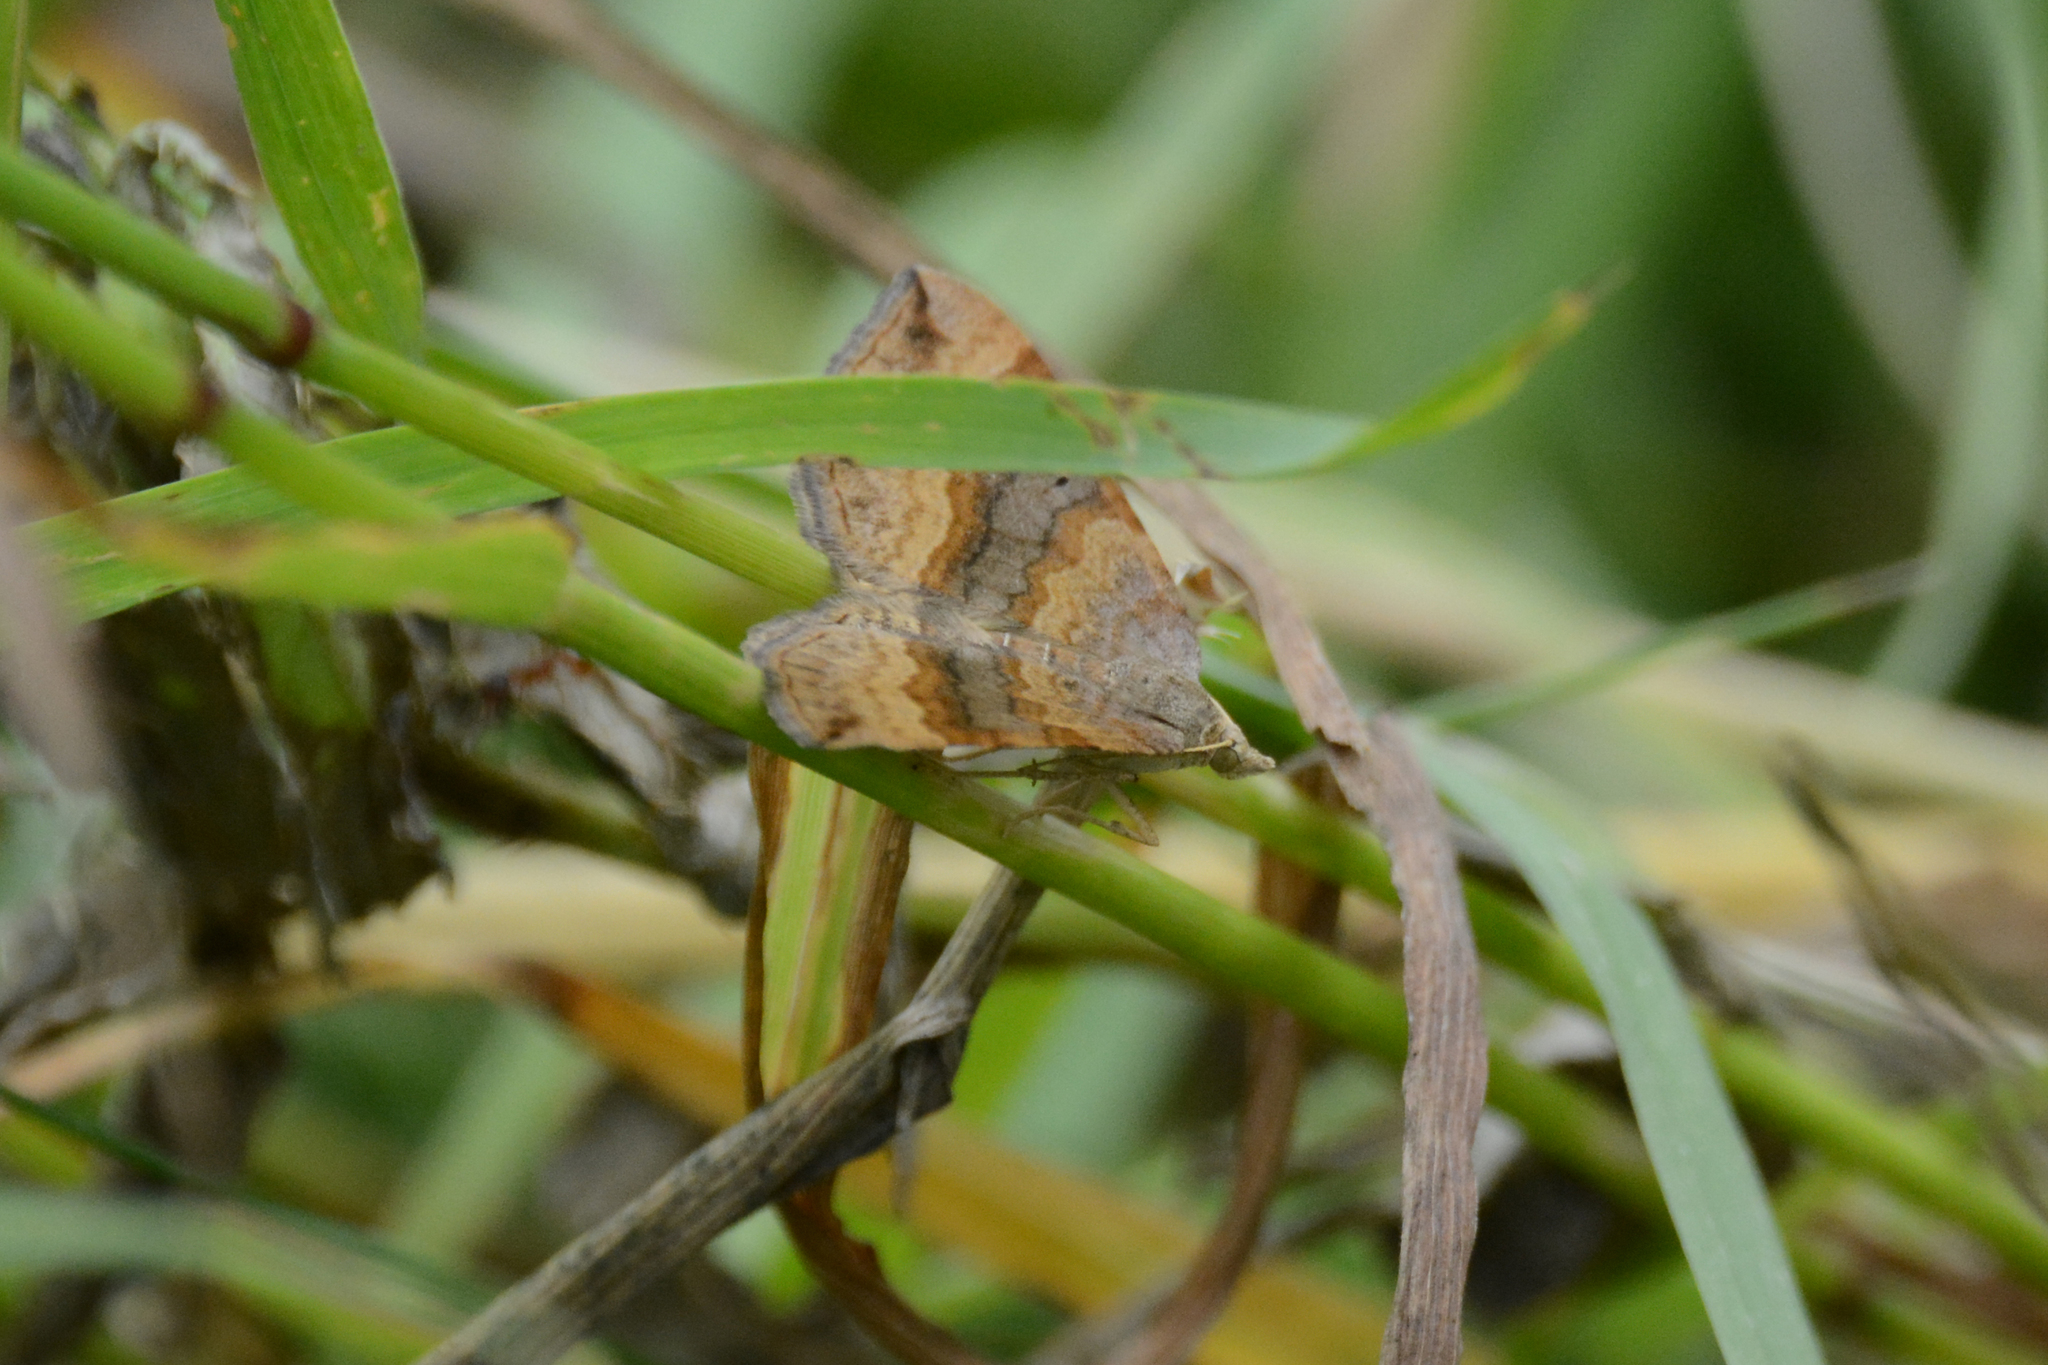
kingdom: Animalia
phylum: Arthropoda
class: Insecta
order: Lepidoptera
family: Geometridae
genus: Scotopteryx
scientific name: Scotopteryx chenopodiata
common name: Shaded broad-bar
